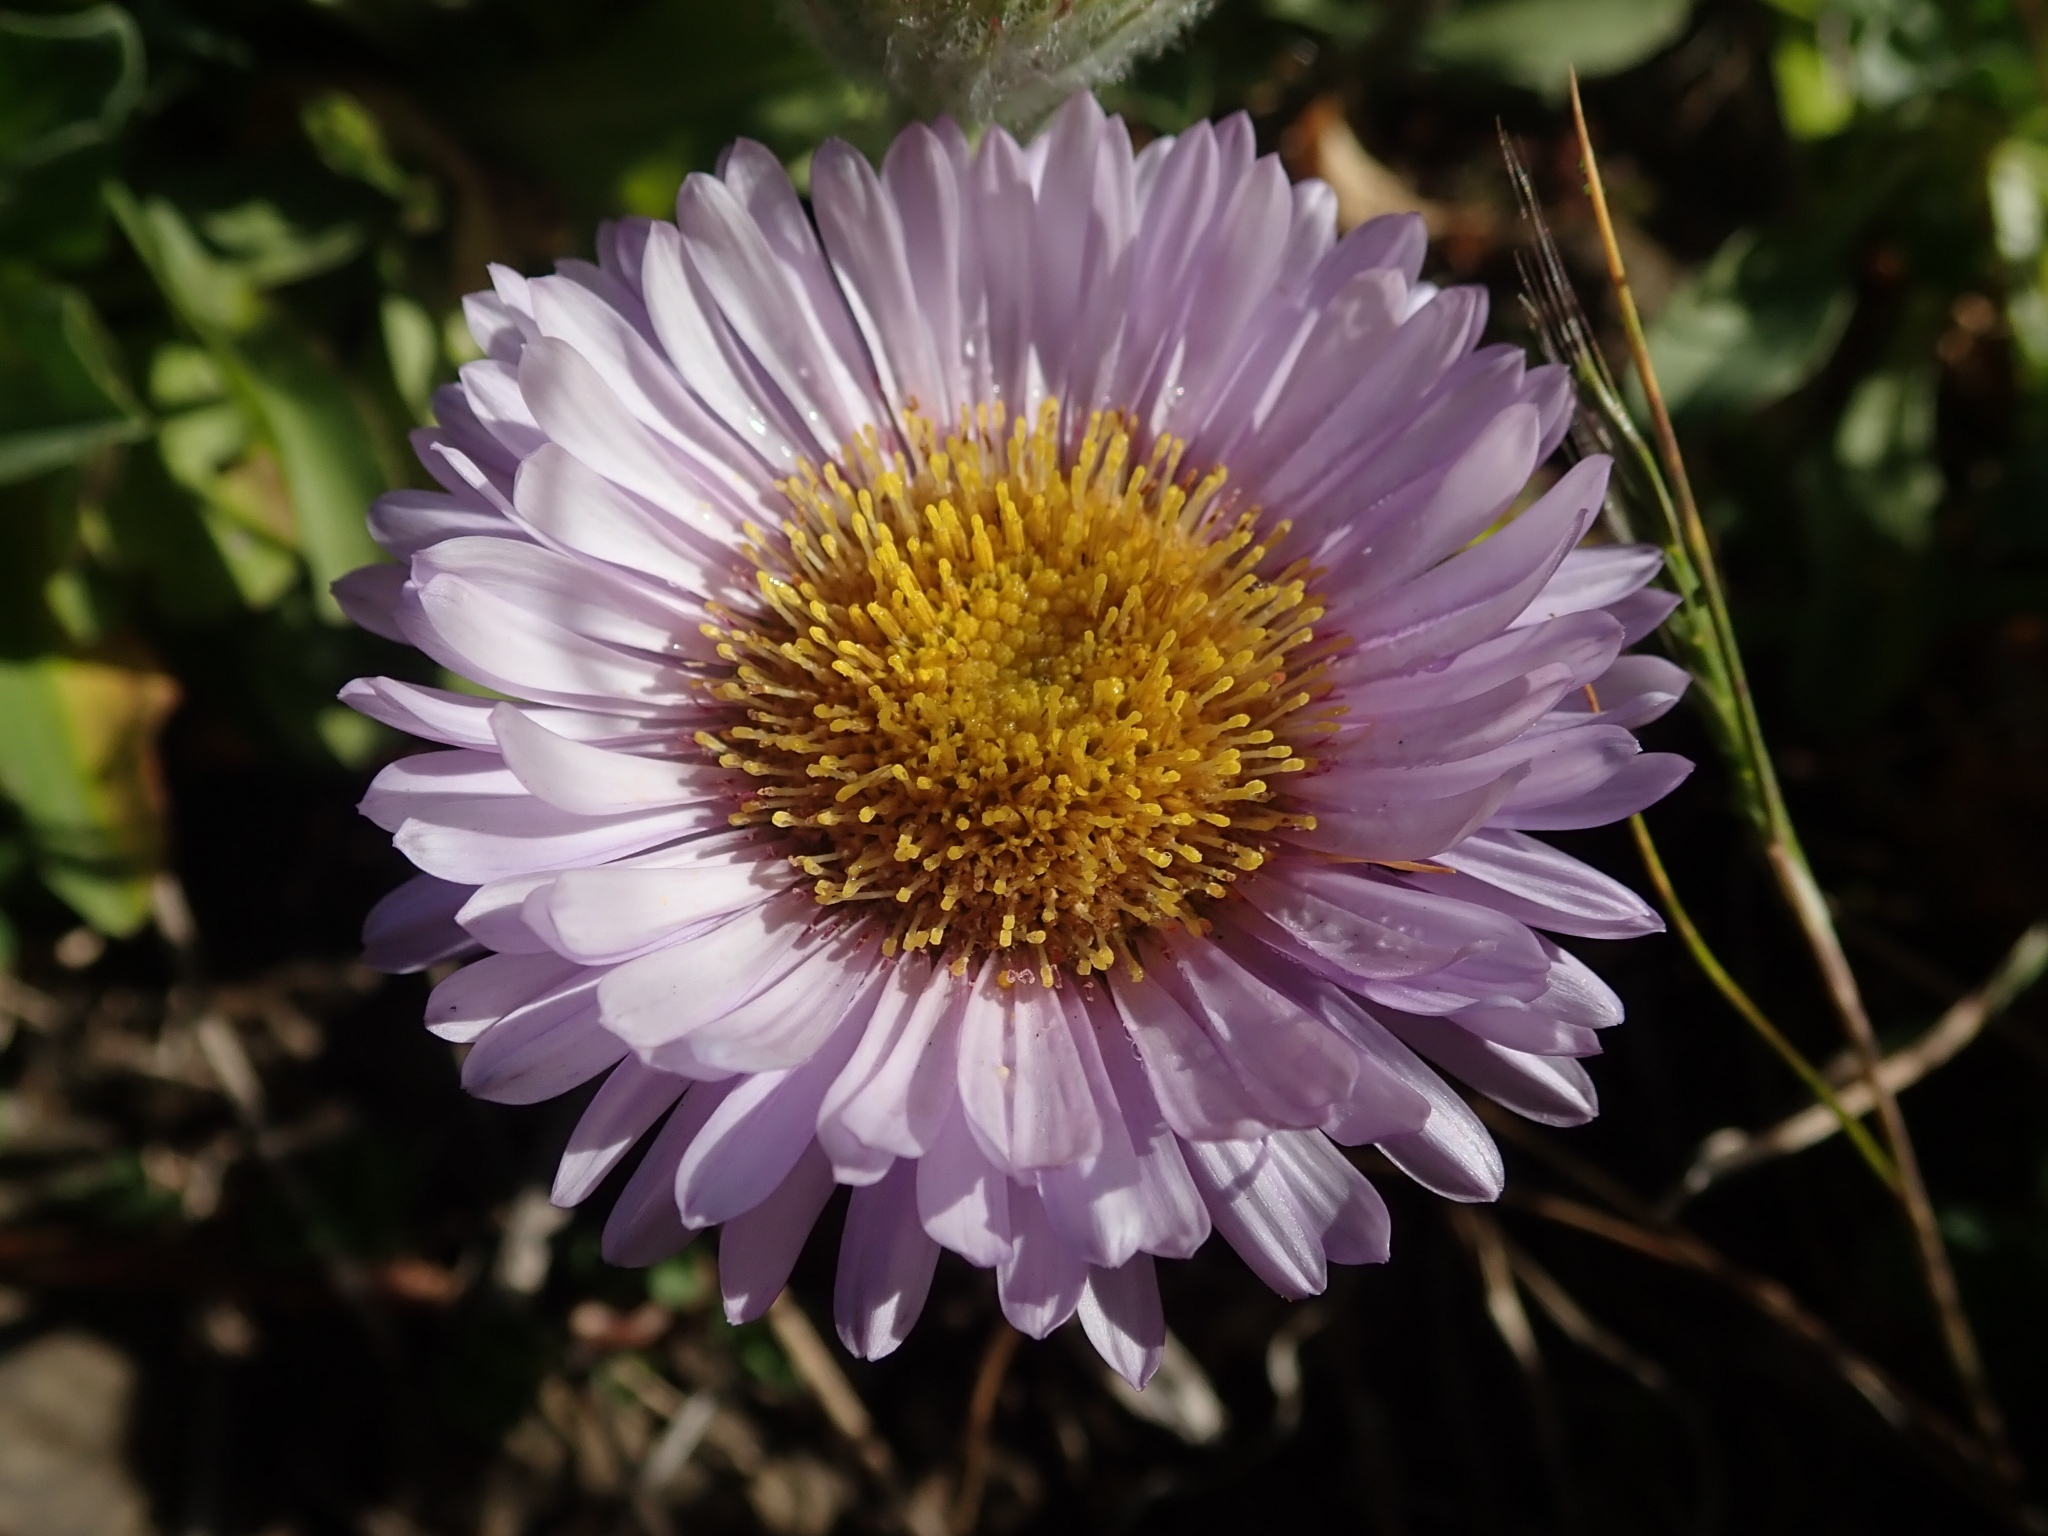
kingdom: Plantae
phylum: Tracheophyta
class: Magnoliopsida
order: Asterales
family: Asteraceae
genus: Erigeron
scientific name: Erigeron glaucus
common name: Seaside daisy
